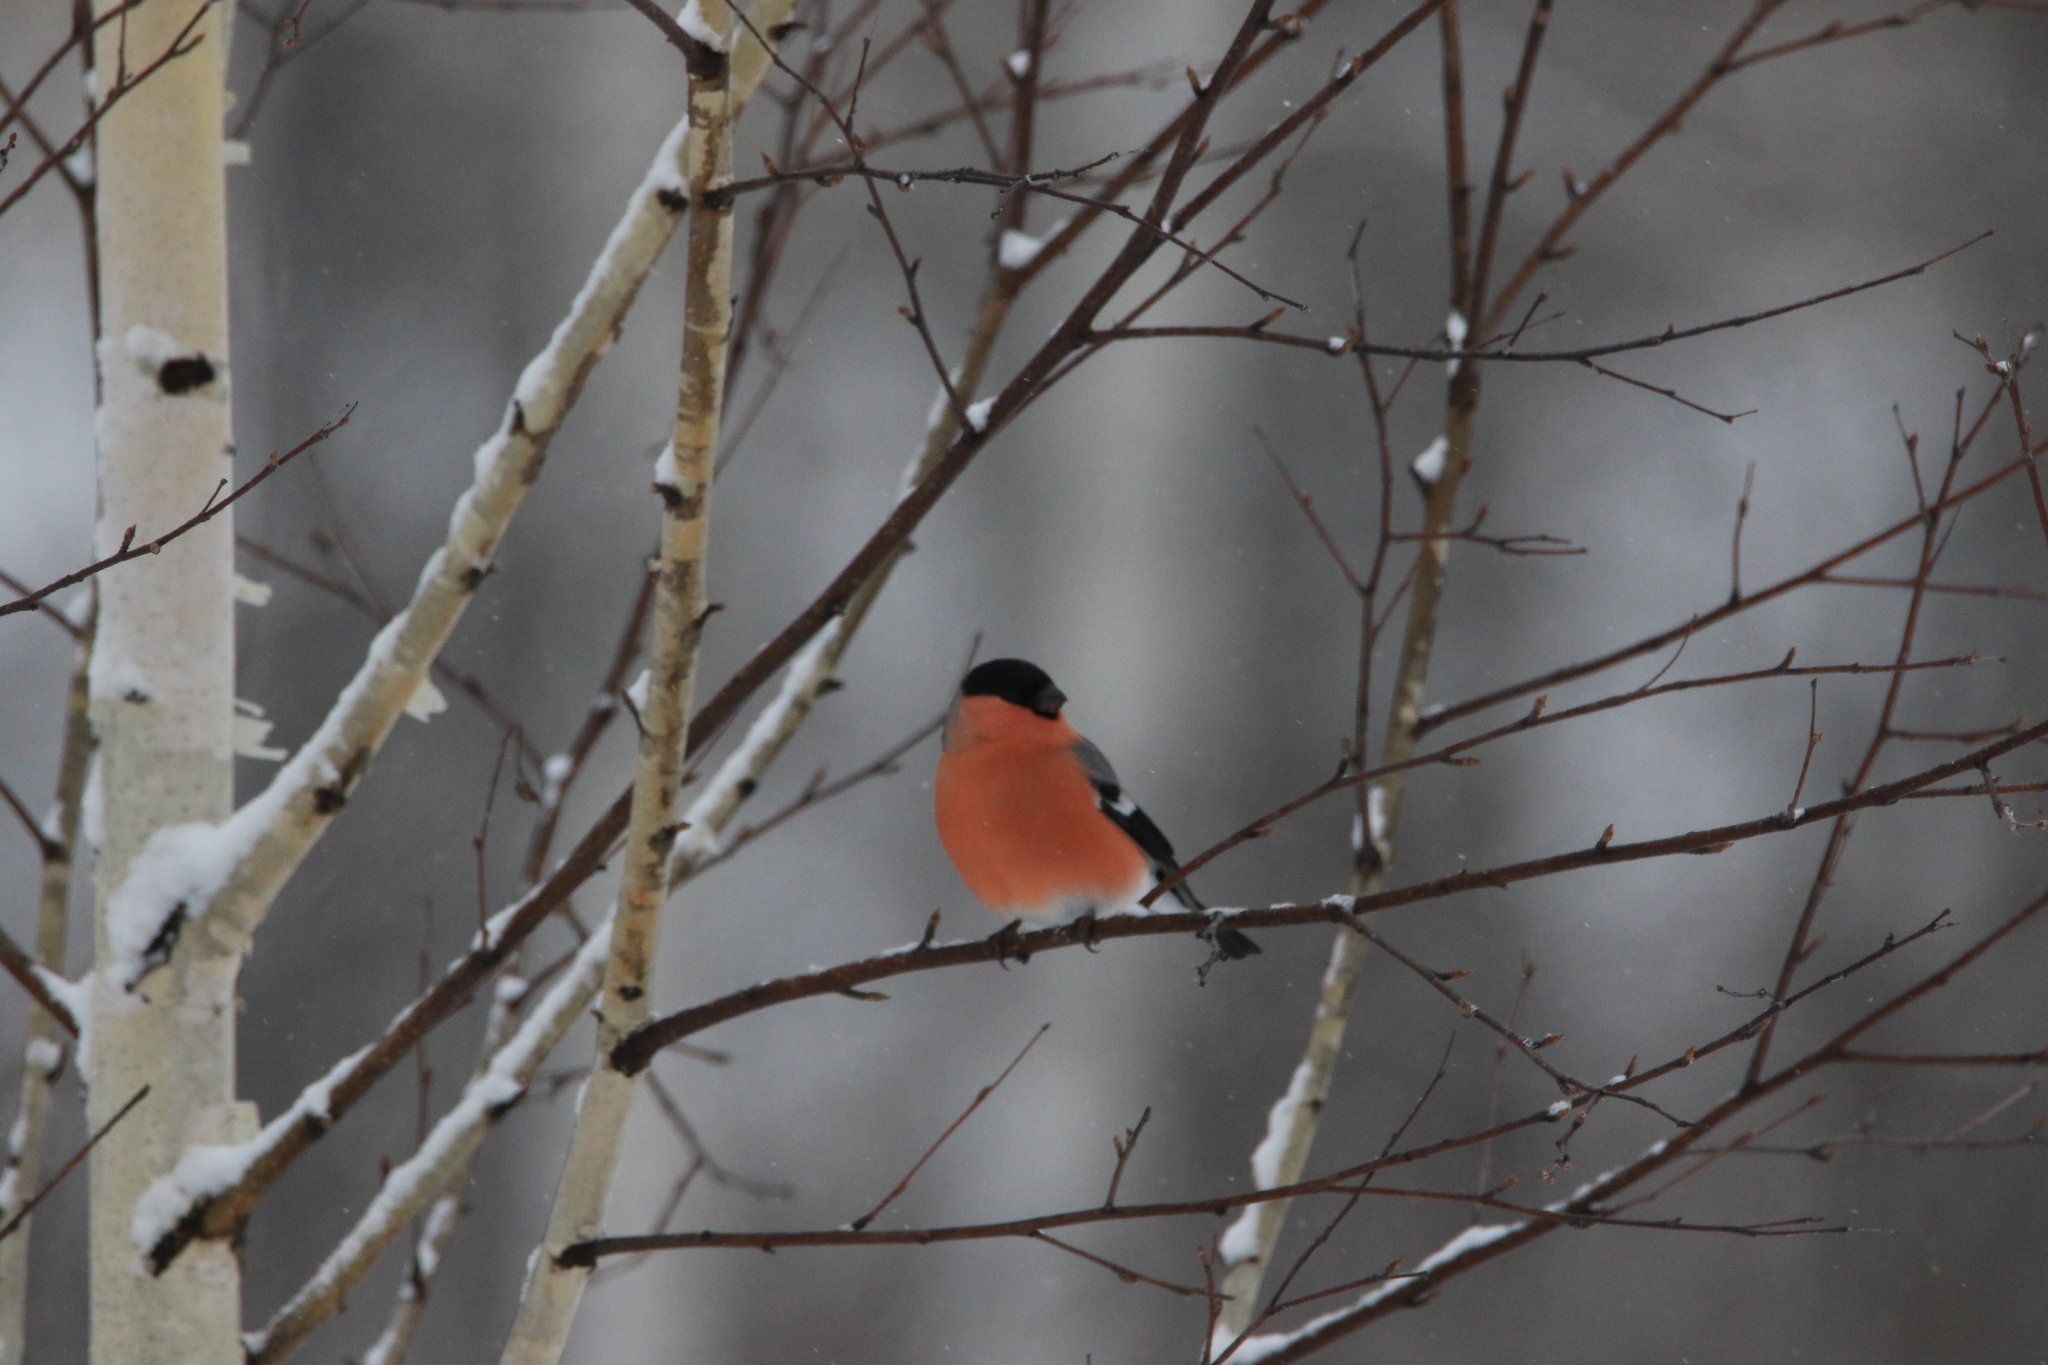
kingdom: Animalia
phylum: Chordata
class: Aves
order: Passeriformes
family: Fringillidae
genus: Pyrrhula
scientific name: Pyrrhula pyrrhula
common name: Eurasian bullfinch
